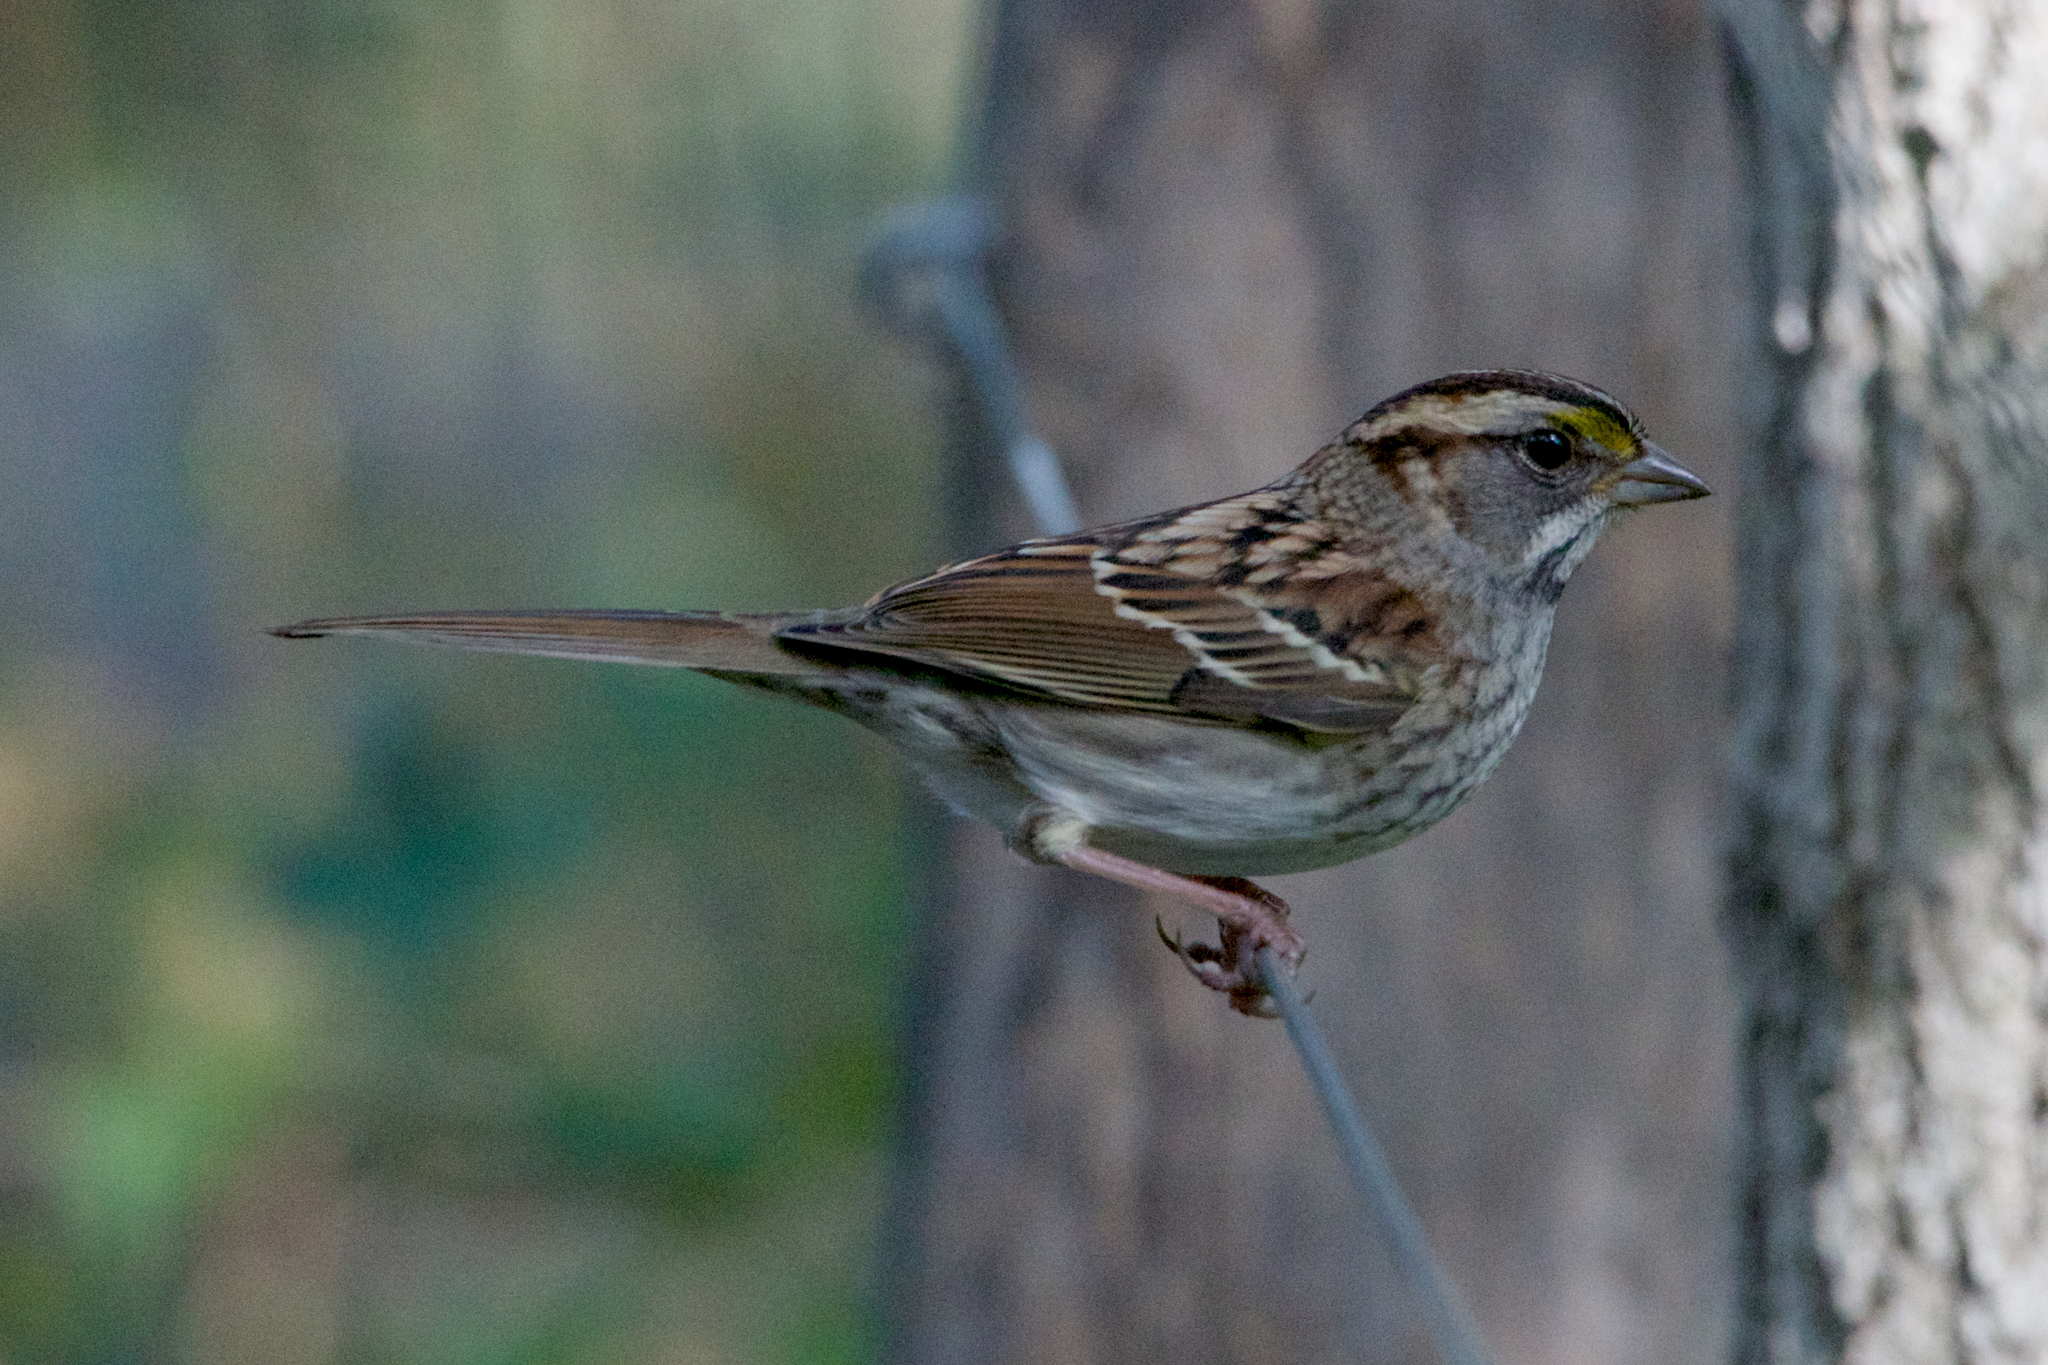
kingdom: Animalia
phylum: Chordata
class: Aves
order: Passeriformes
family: Passerellidae
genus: Zonotrichia
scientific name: Zonotrichia albicollis
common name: White-throated sparrow
